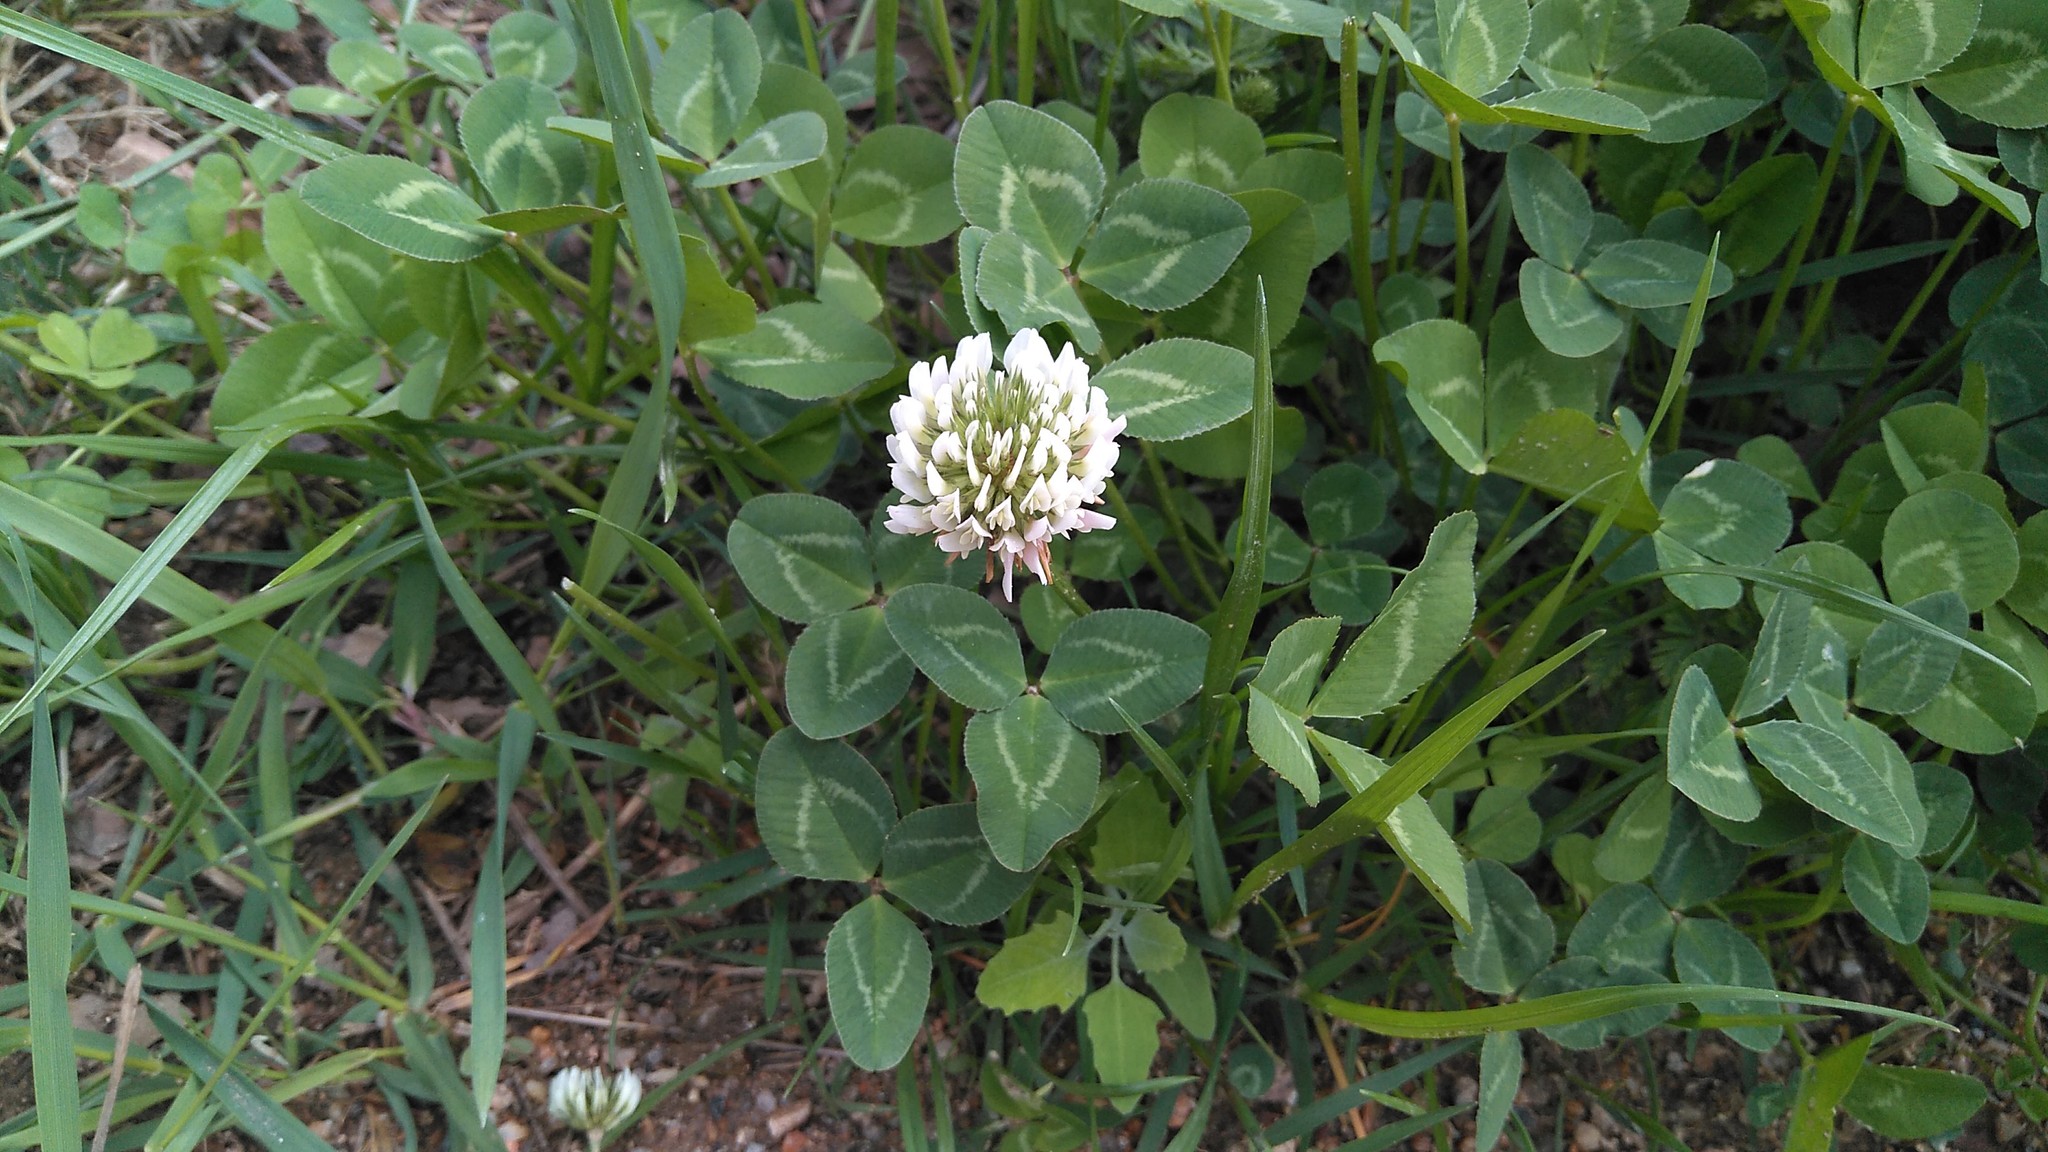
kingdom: Plantae
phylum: Tracheophyta
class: Magnoliopsida
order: Fabales
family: Fabaceae
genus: Trifolium
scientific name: Trifolium repens
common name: White clover
